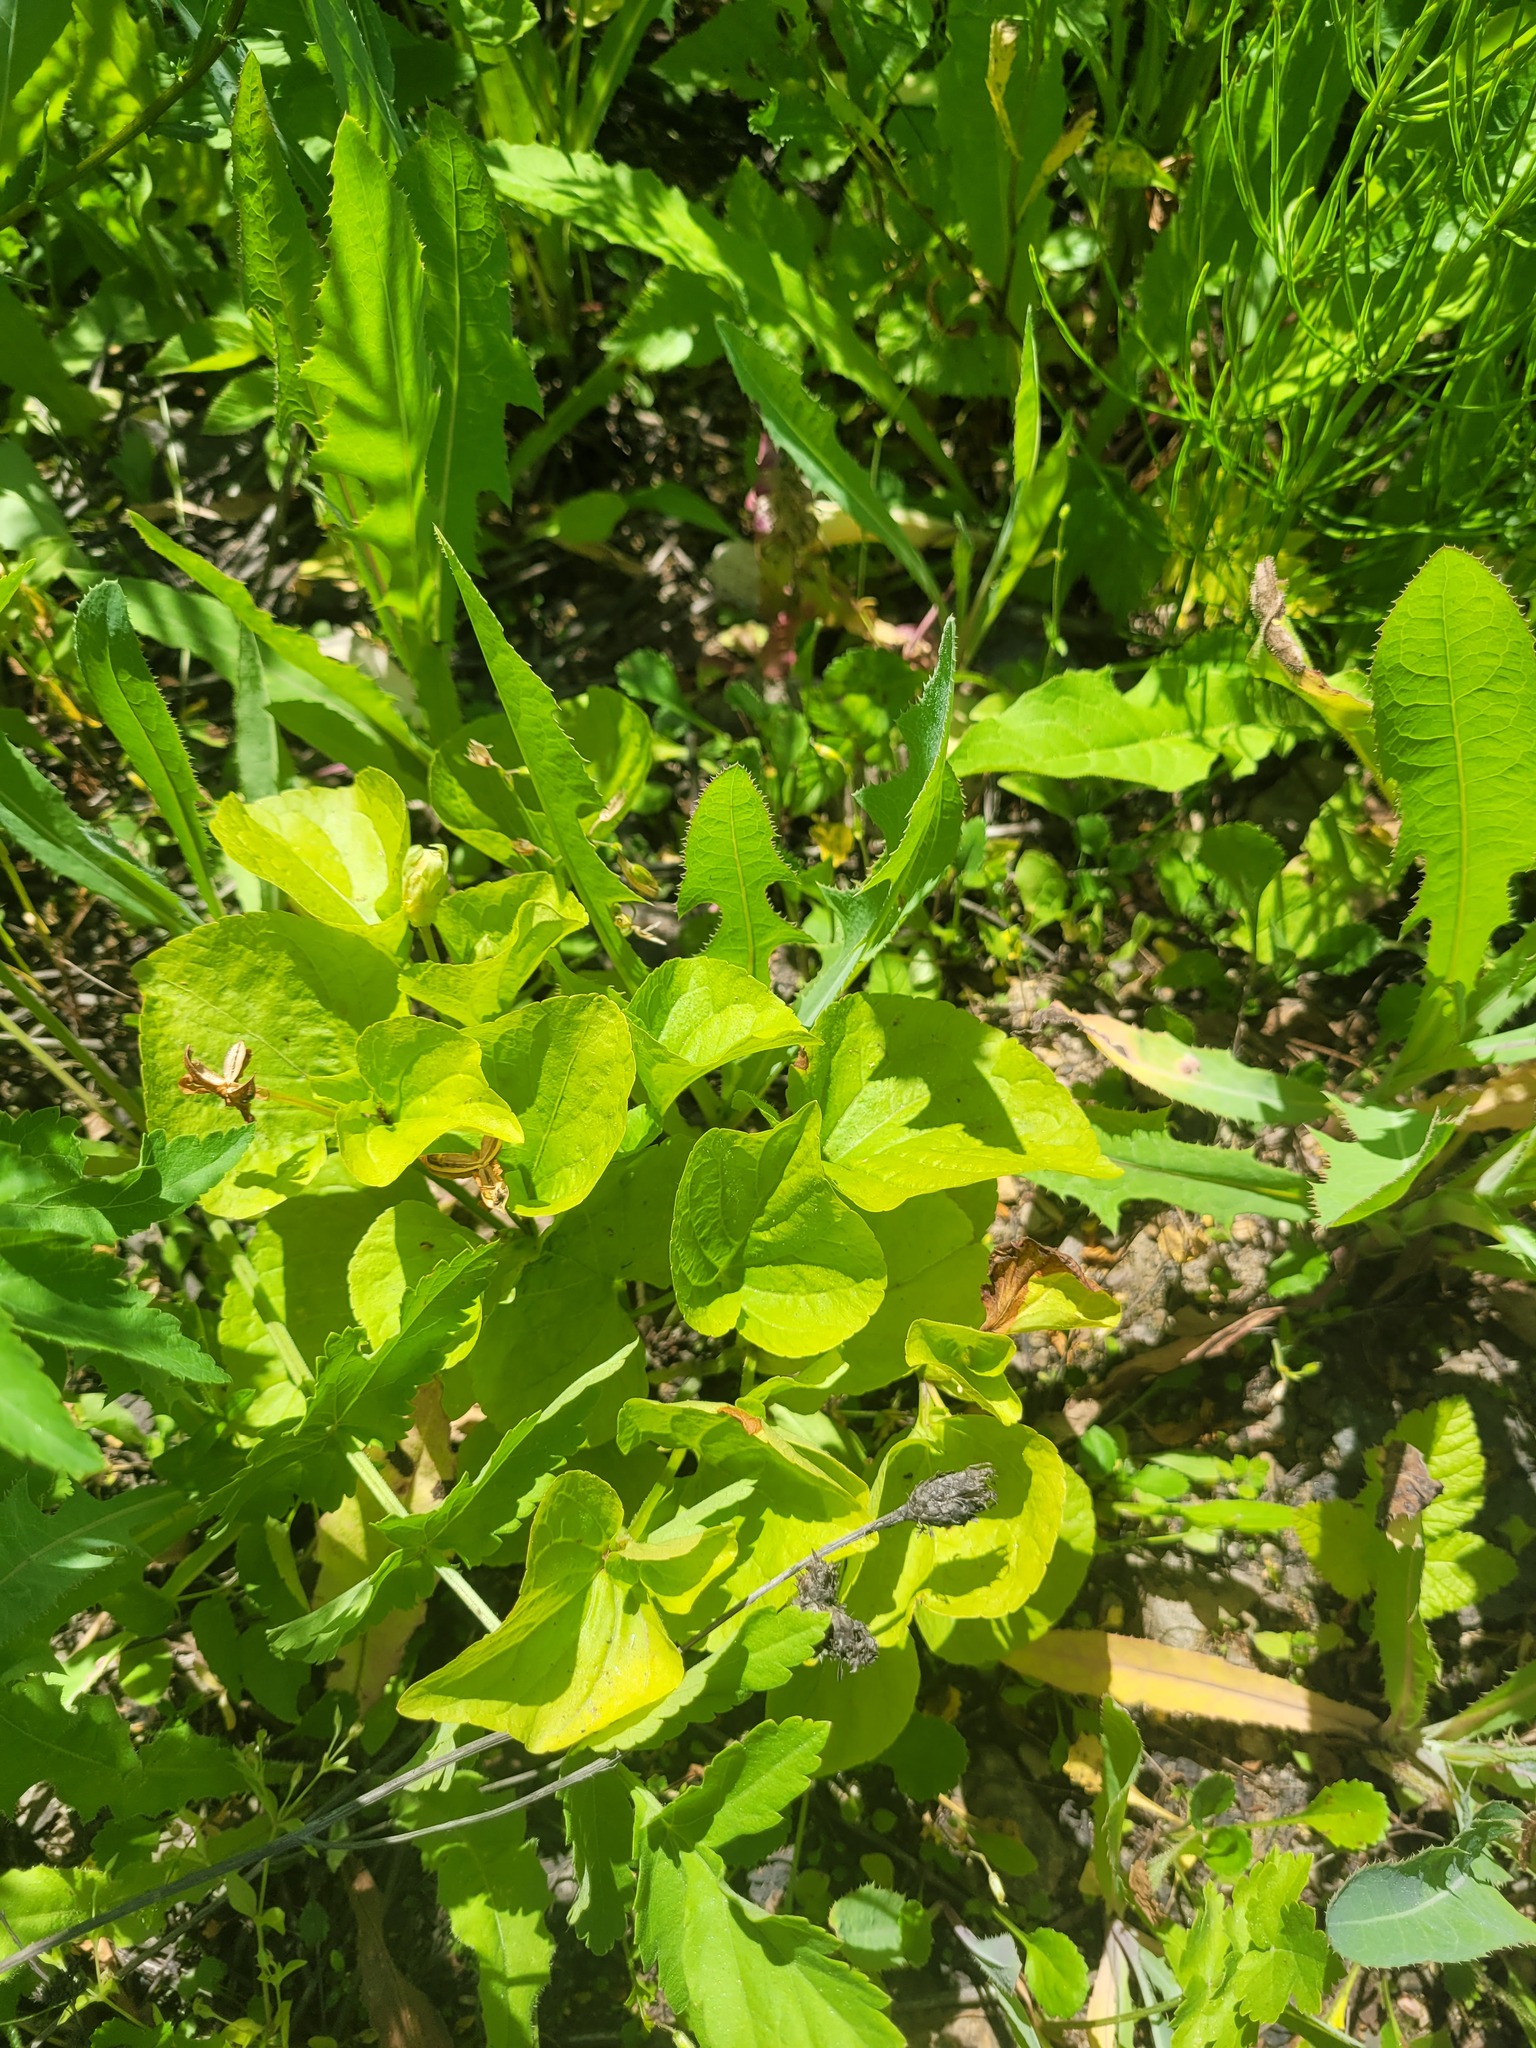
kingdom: Plantae
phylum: Tracheophyta
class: Magnoliopsida
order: Malpighiales
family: Violaceae
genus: Viola
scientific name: Viola mirabilis
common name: Wonder violet
